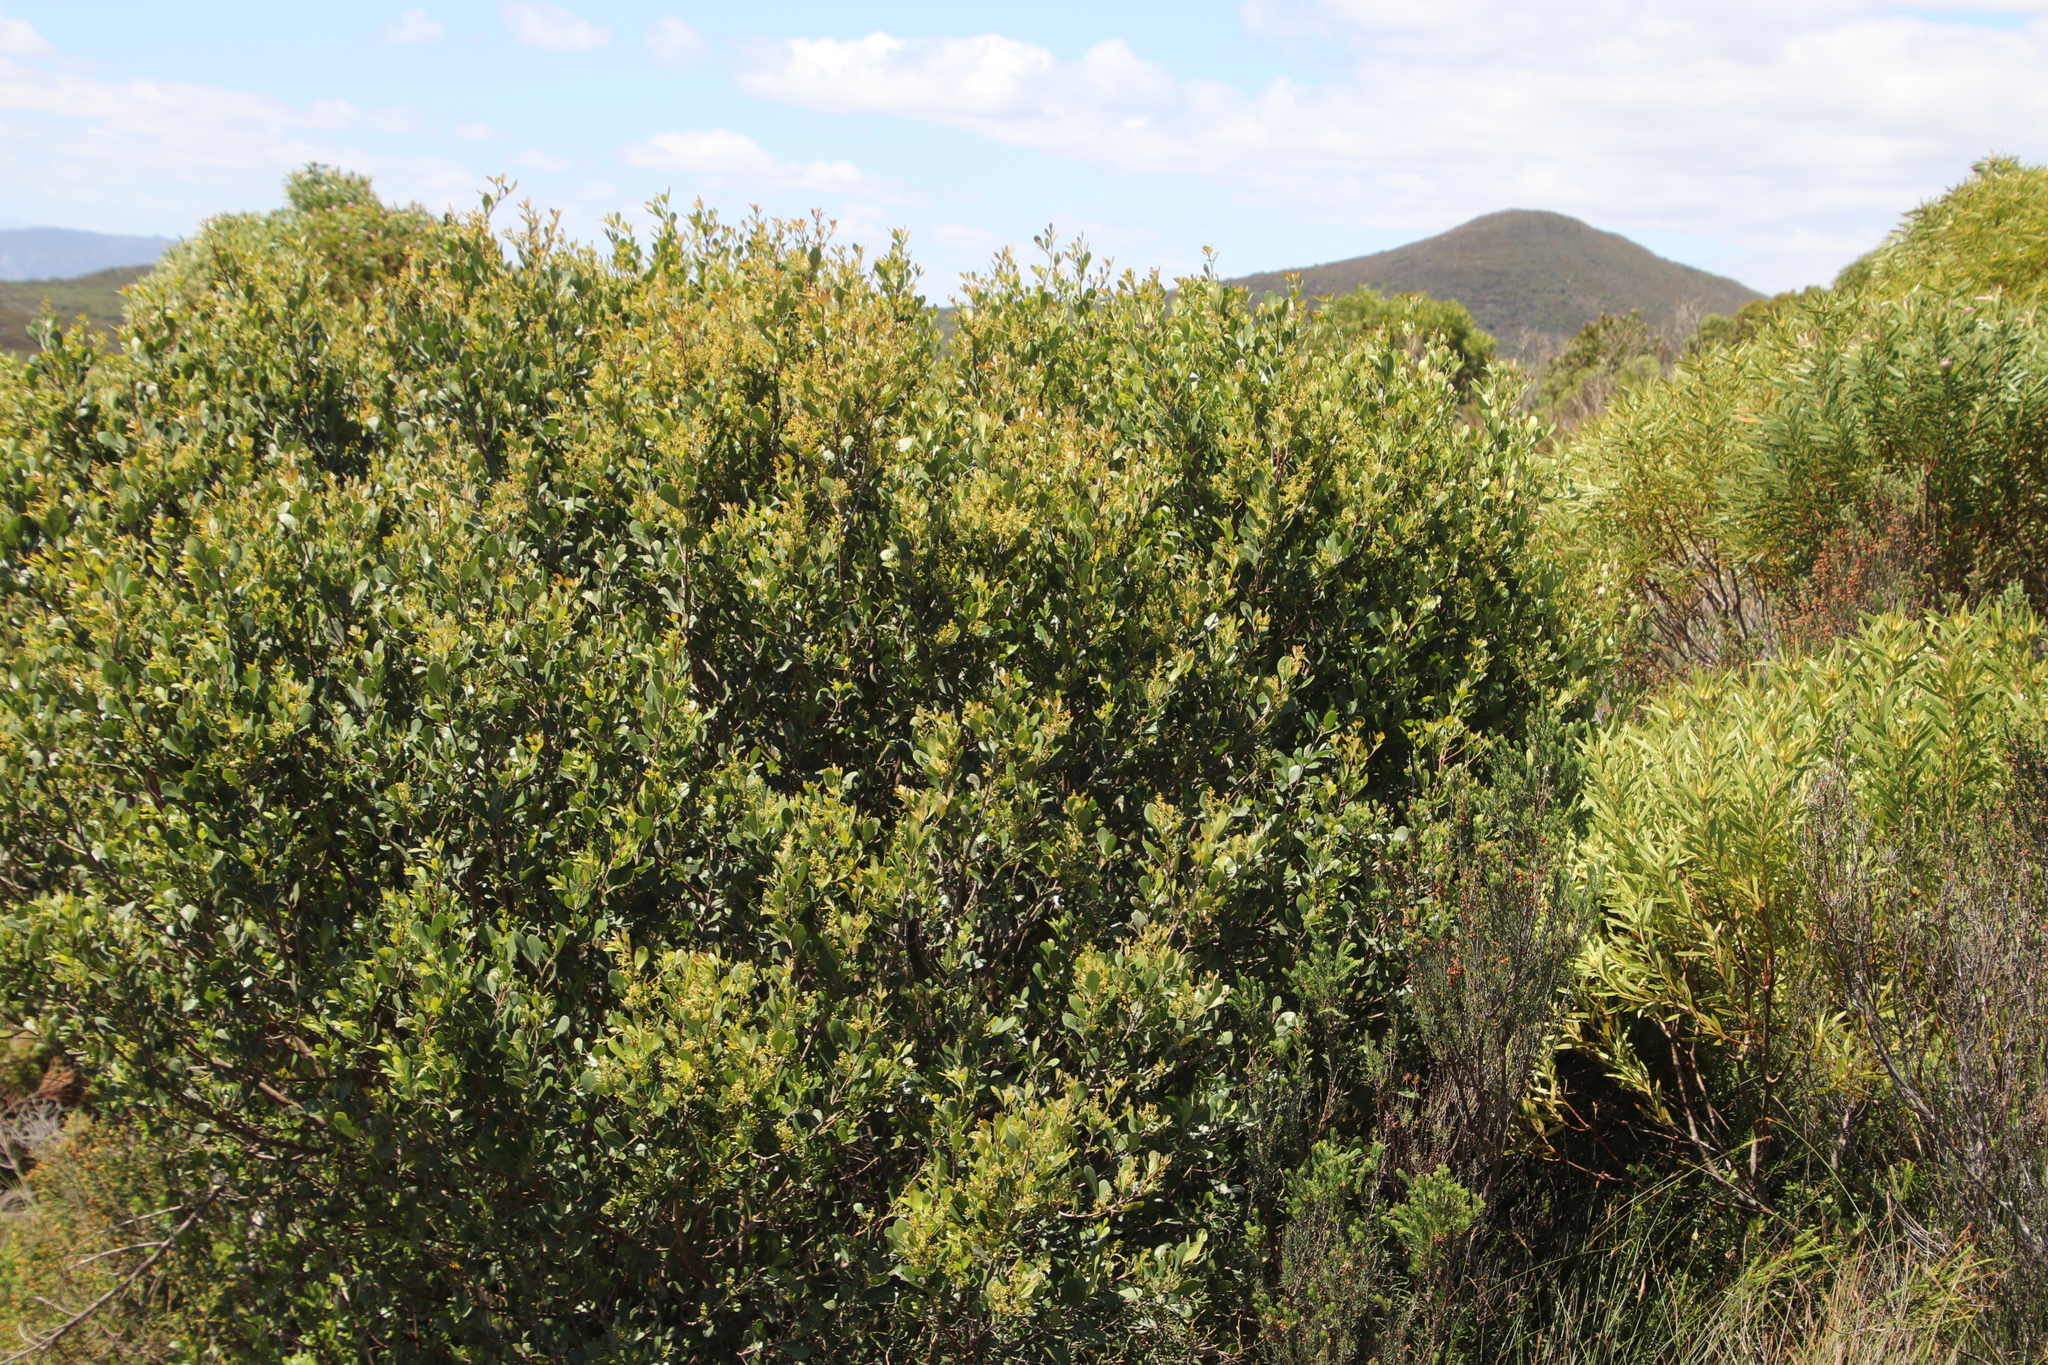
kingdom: Plantae
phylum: Tracheophyta
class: Magnoliopsida
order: Sapindales
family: Anacardiaceae
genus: Searsia
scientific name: Searsia lucida
